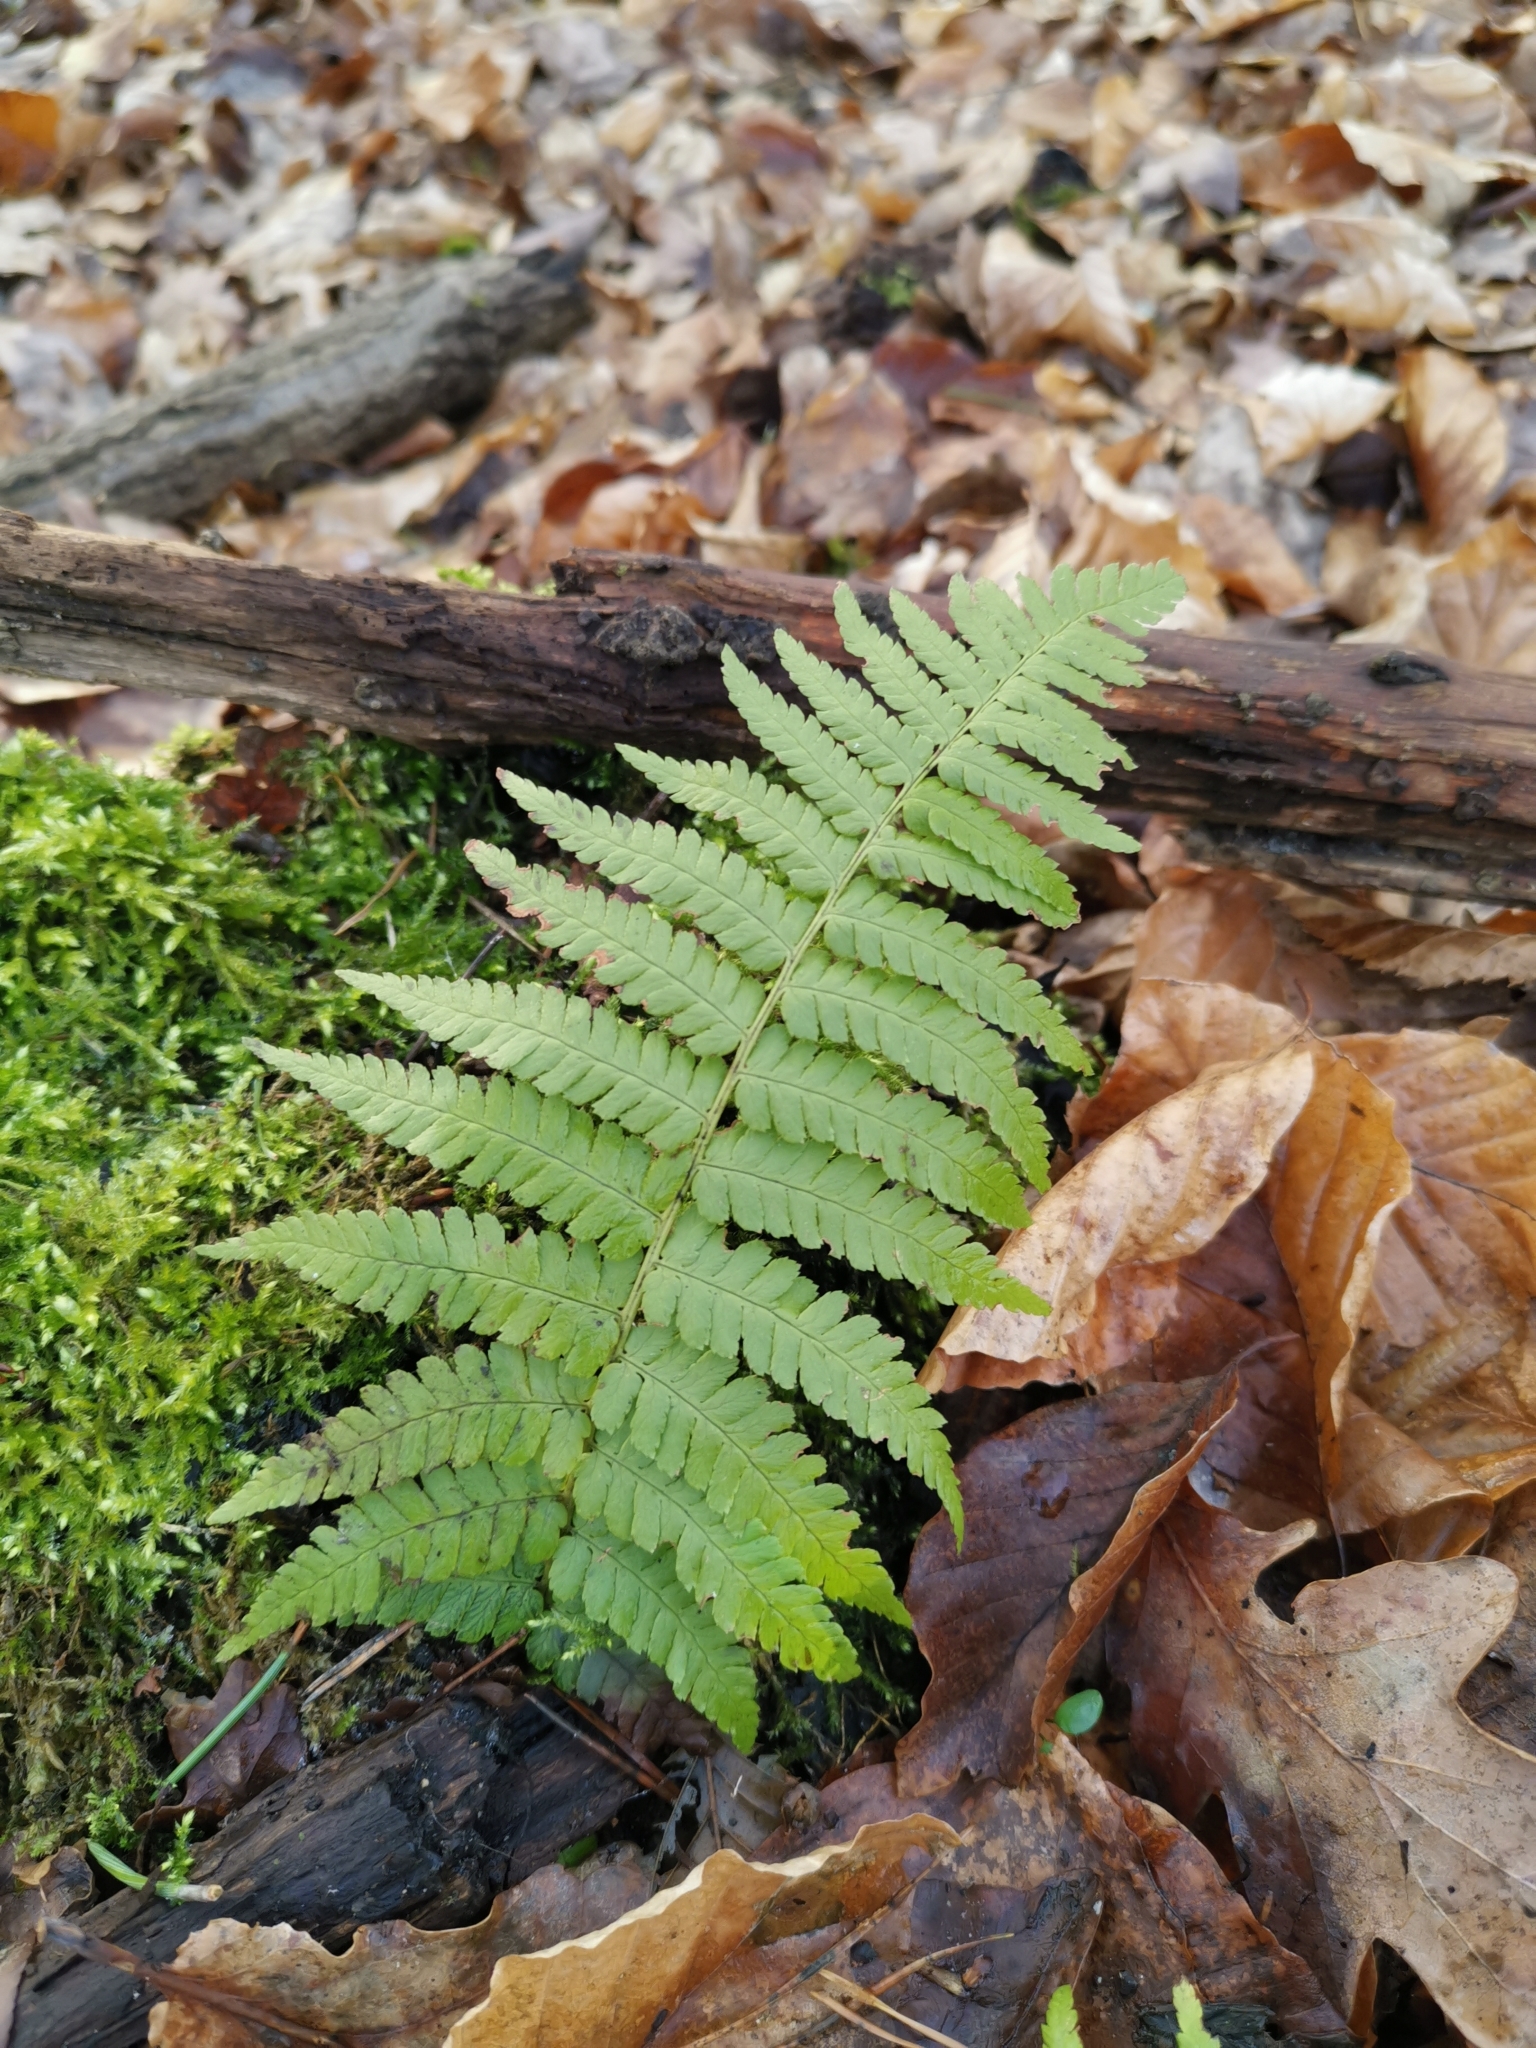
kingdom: Plantae
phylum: Tracheophyta
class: Polypodiopsida
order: Polypodiales
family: Dryopteridaceae
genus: Dryopteris
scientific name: Dryopteris filix-mas
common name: Male fern
